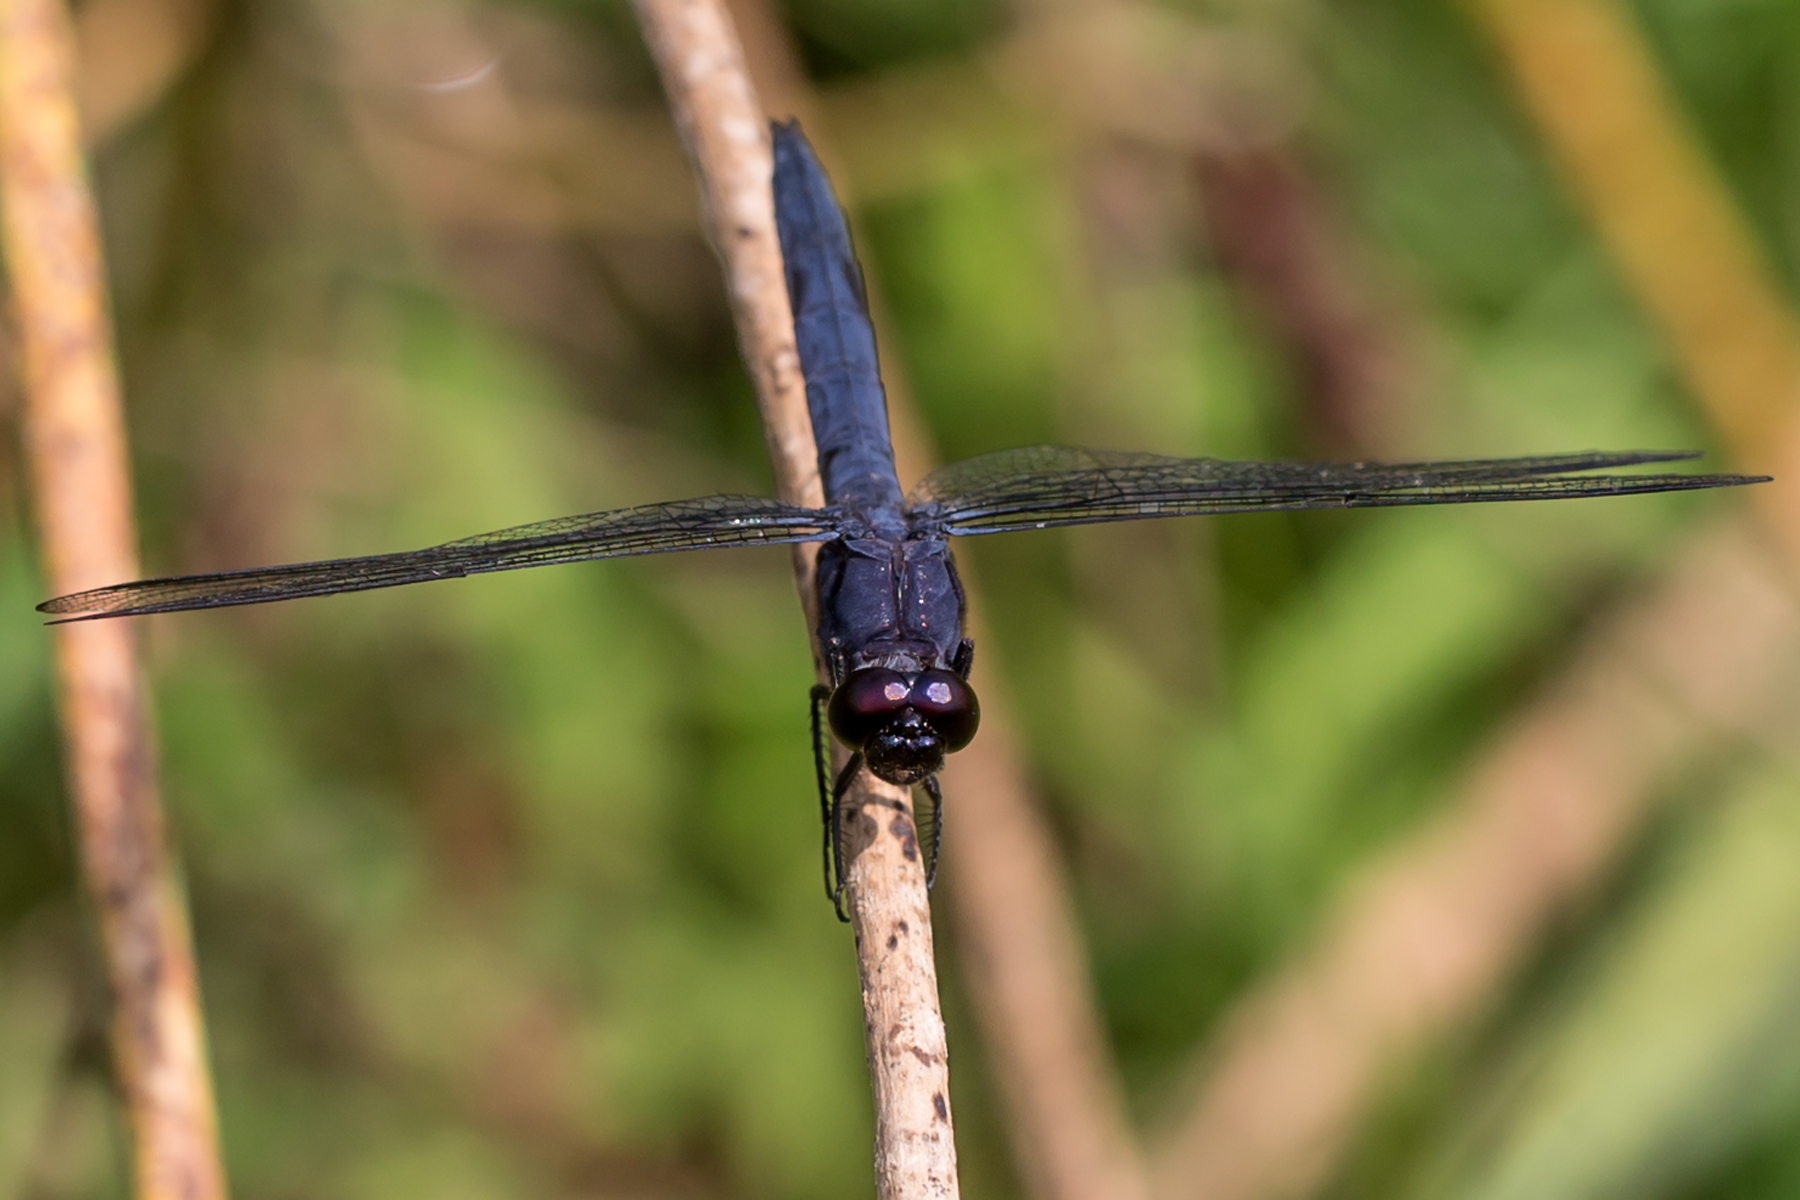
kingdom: Animalia
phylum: Arthropoda
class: Insecta
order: Odonata
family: Libellulidae
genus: Libellula
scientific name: Libellula incesta
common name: Slaty skimmer
